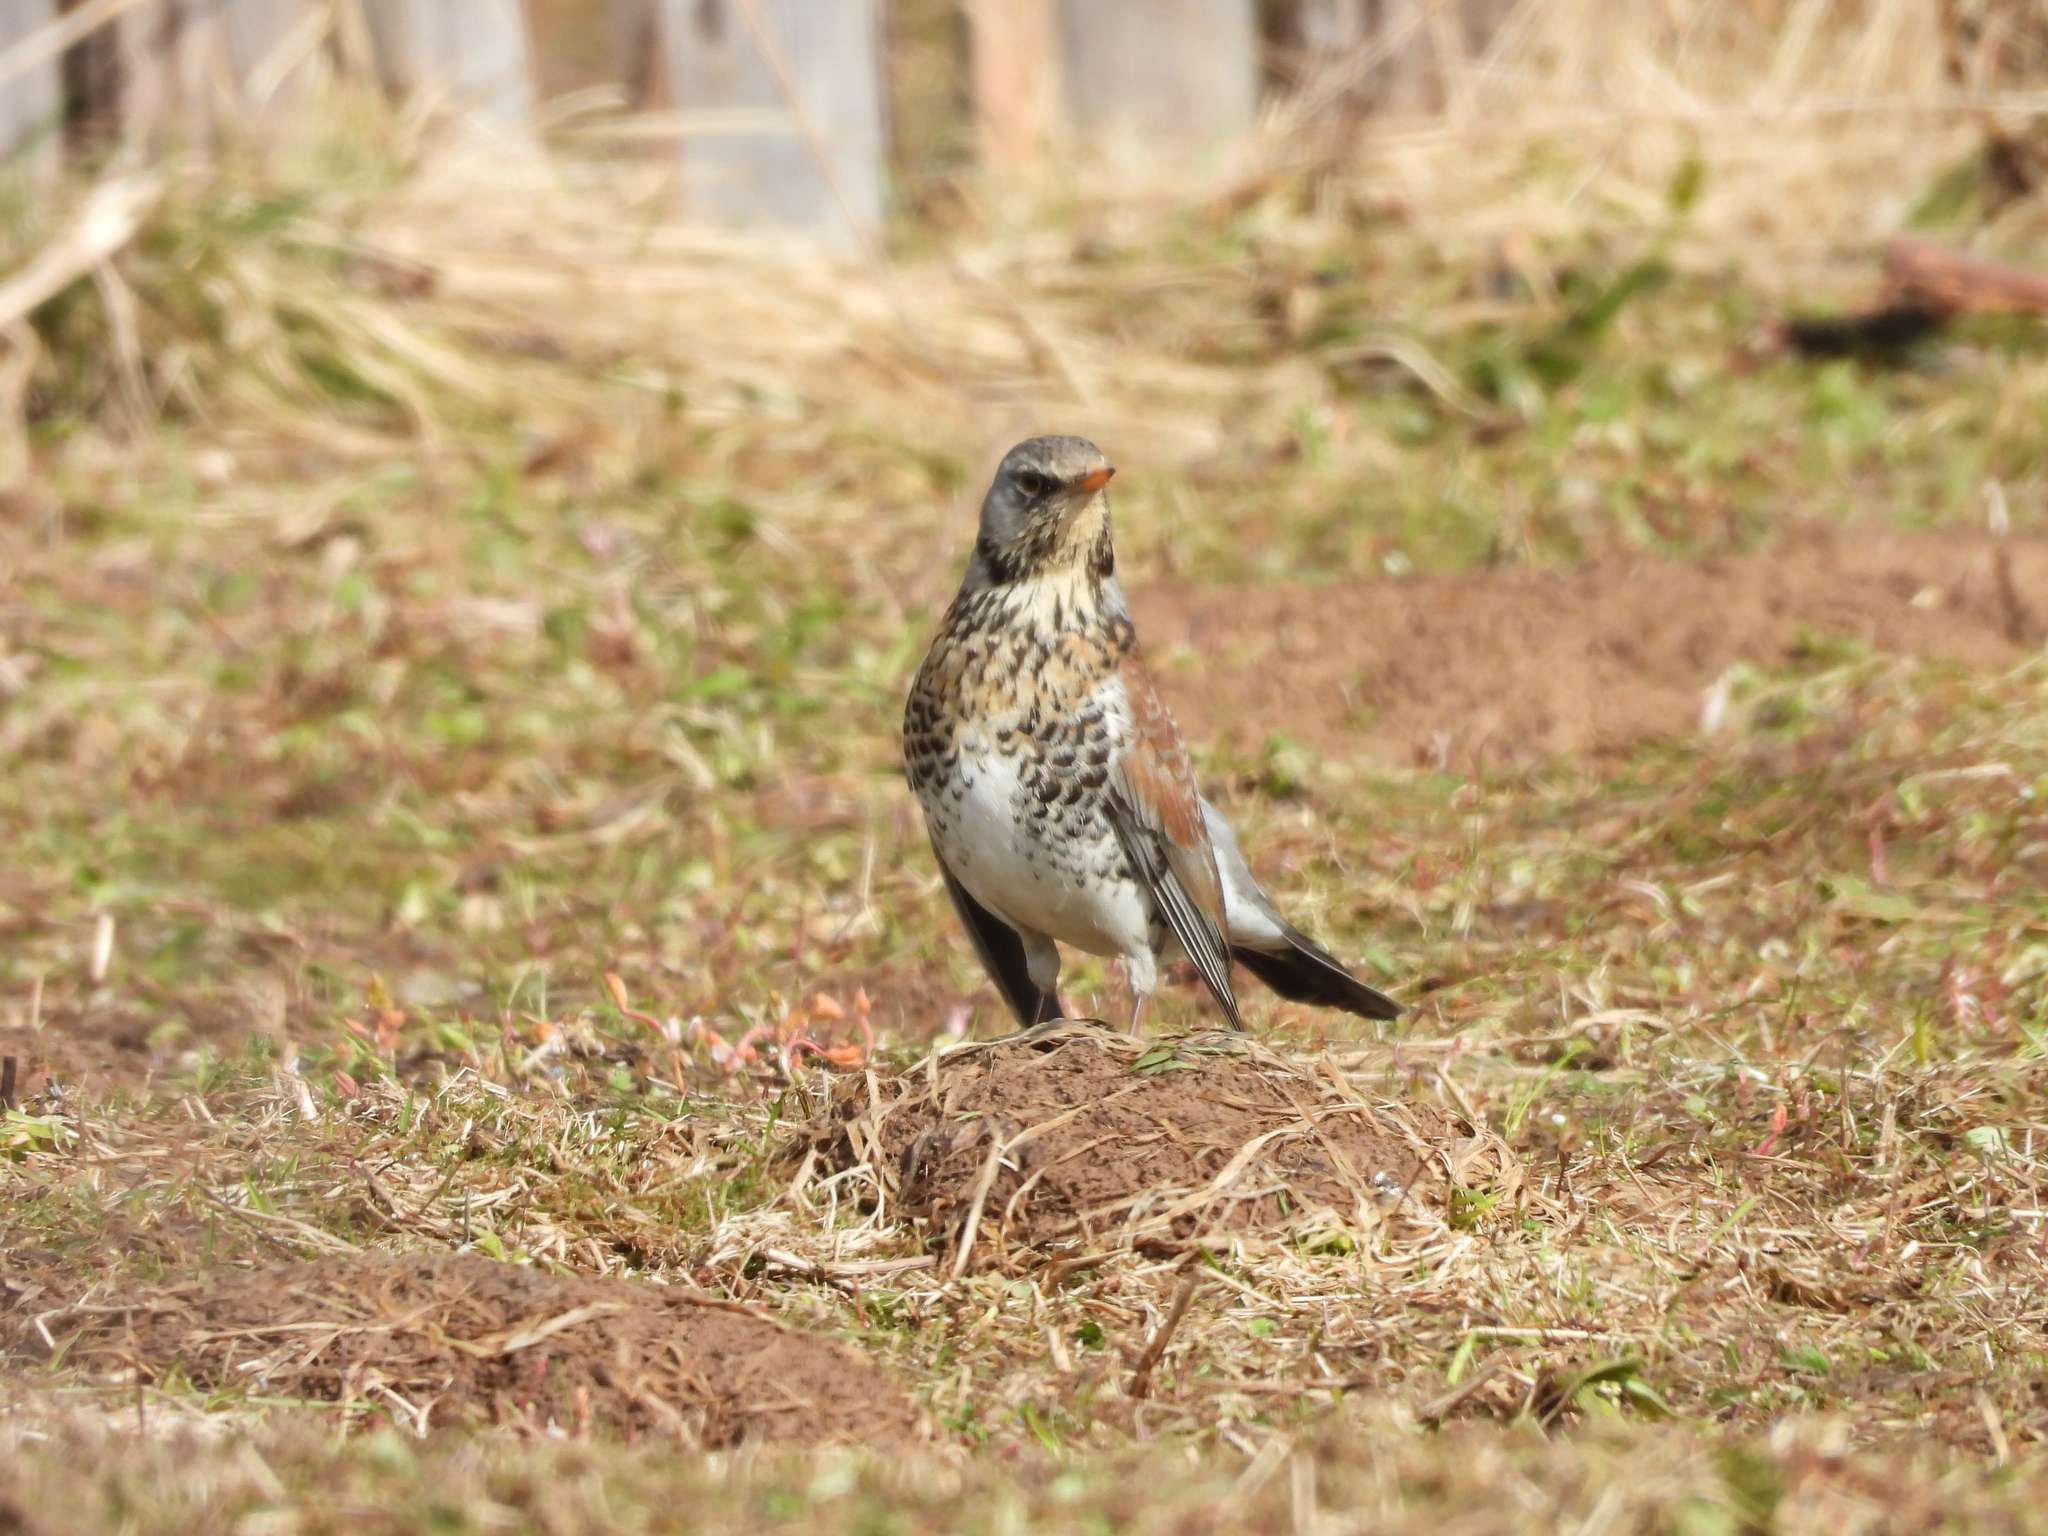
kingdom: Animalia
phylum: Chordata
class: Aves
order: Passeriformes
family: Turdidae
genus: Turdus
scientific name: Turdus pilaris
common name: Fieldfare
